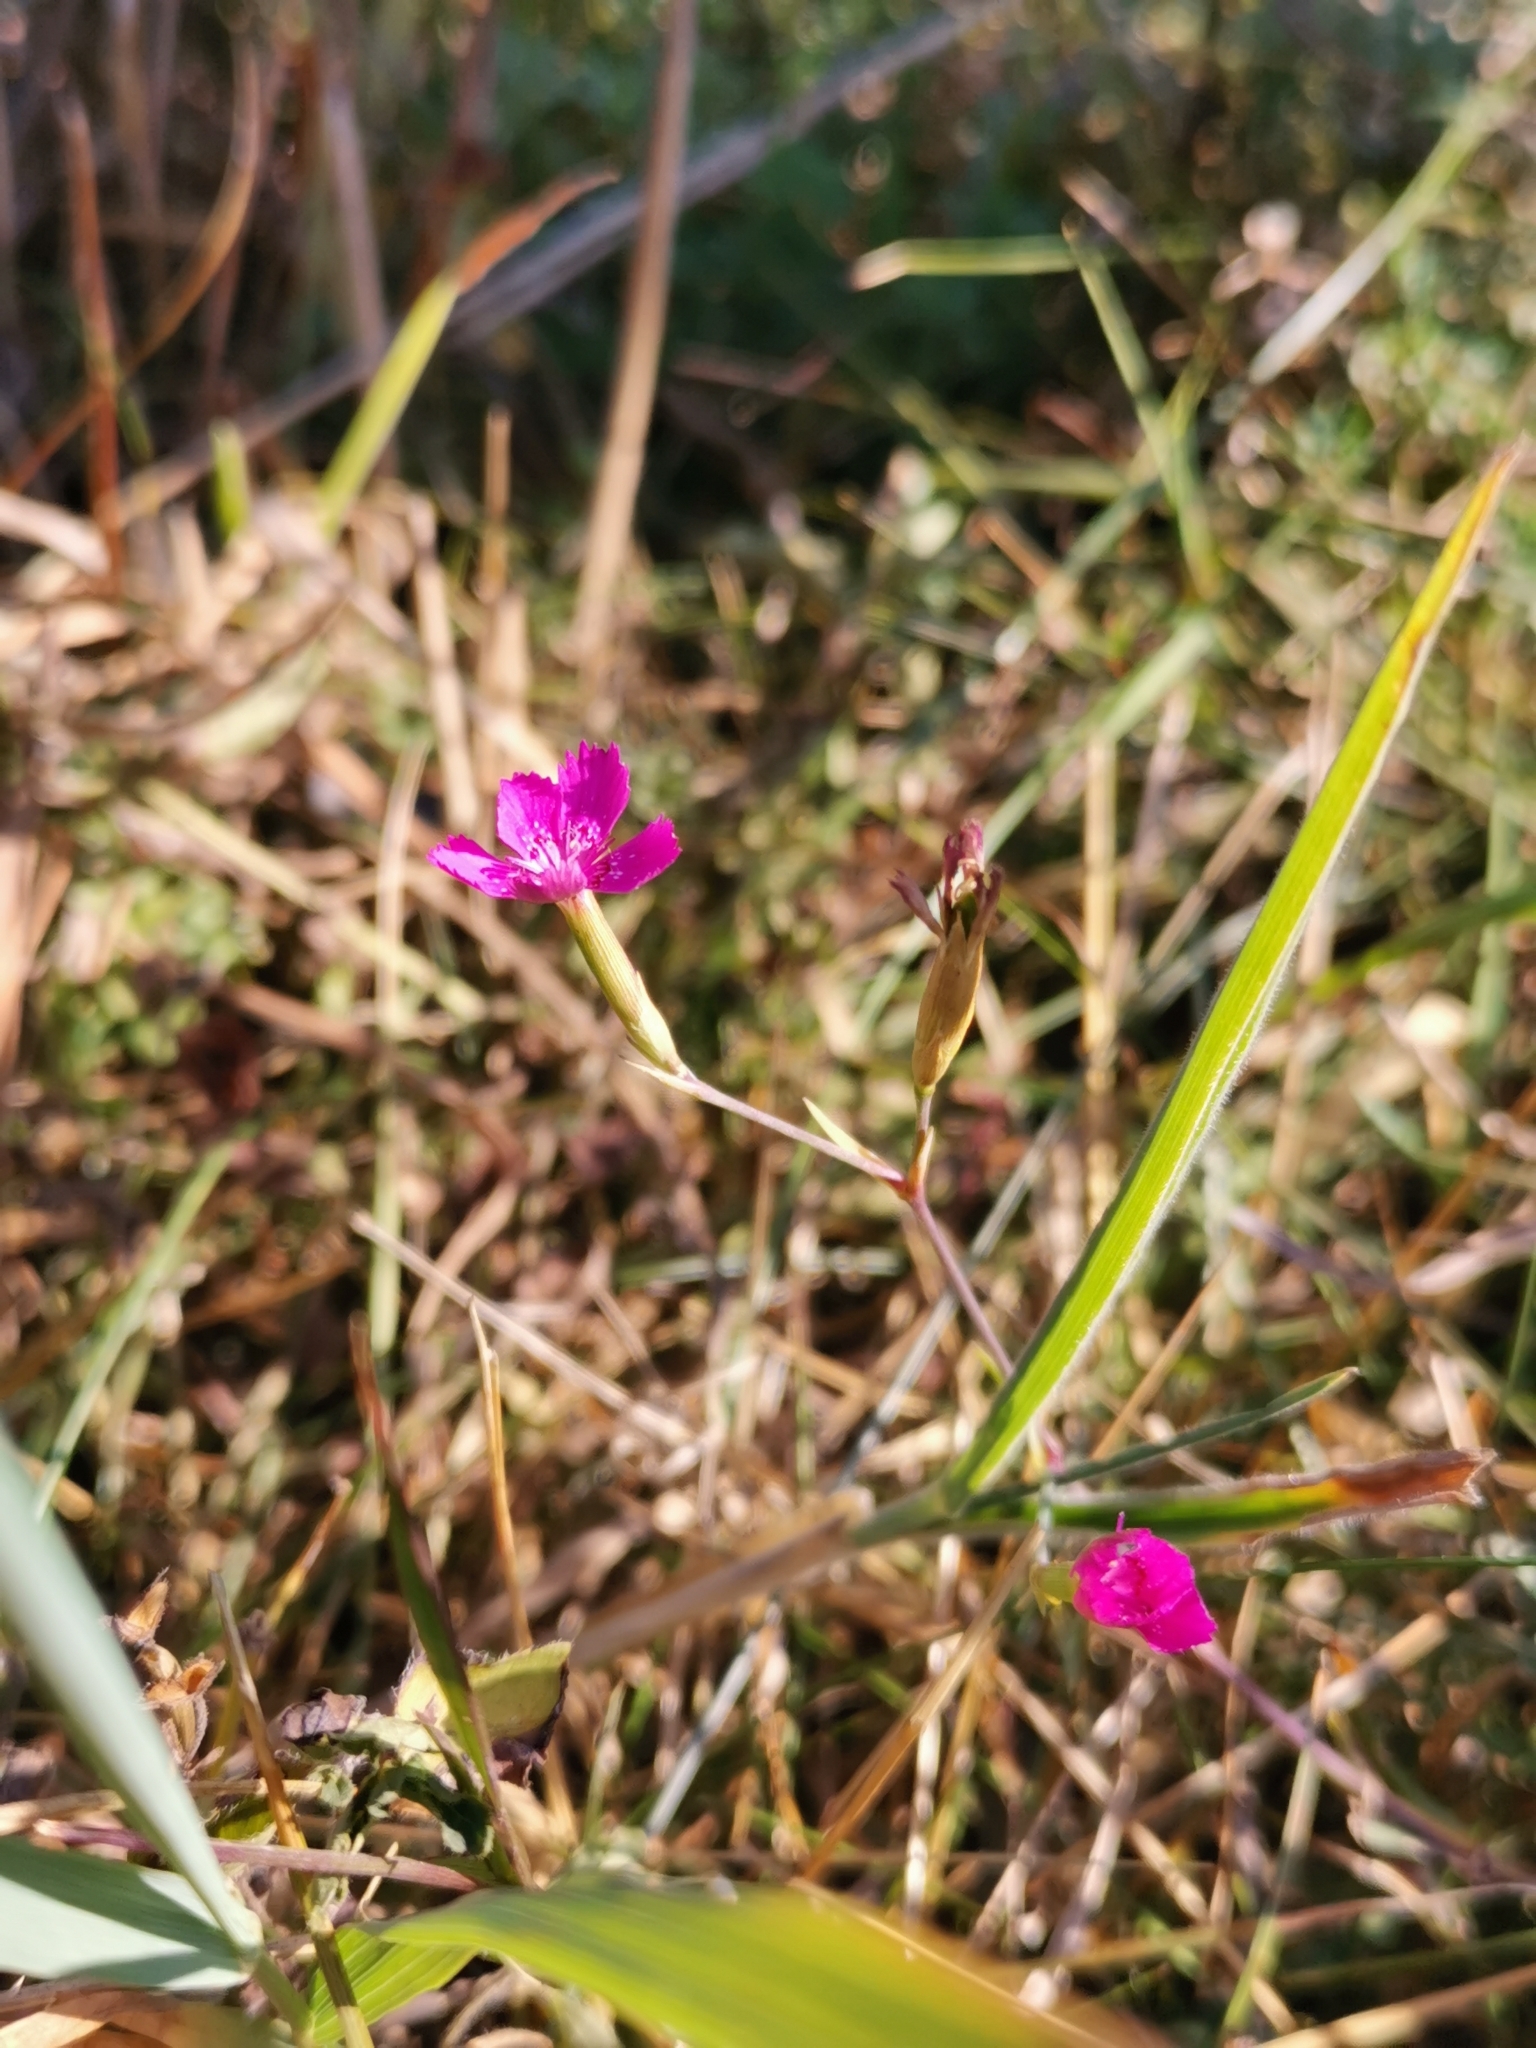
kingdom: Plantae
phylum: Tracheophyta
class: Magnoliopsida
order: Caryophyllales
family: Caryophyllaceae
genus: Dianthus
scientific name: Dianthus deltoides
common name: Maiden pink
